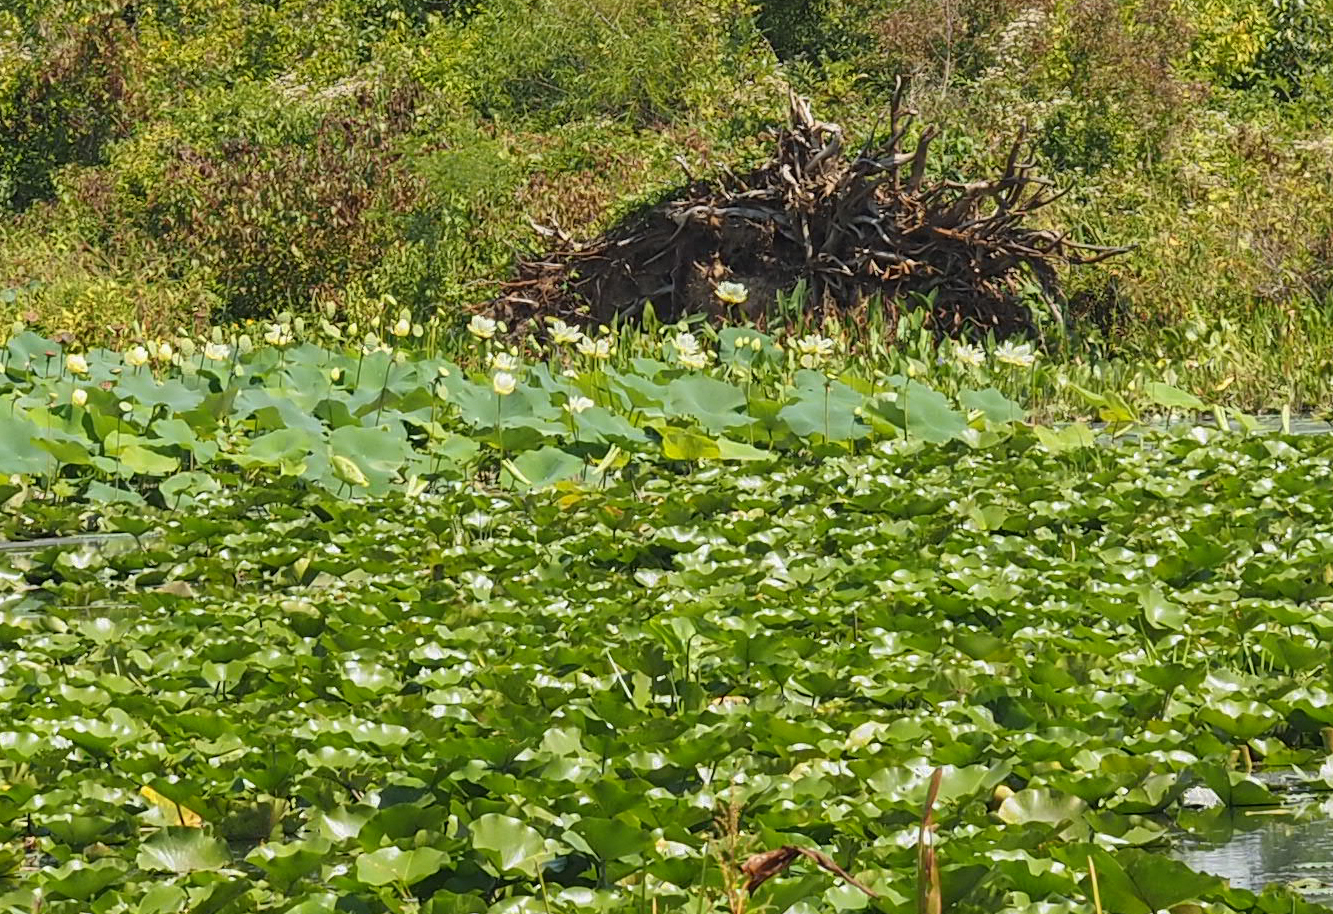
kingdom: Plantae
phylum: Tracheophyta
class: Magnoliopsida
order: Proteales
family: Nelumbonaceae
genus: Nelumbo
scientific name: Nelumbo lutea
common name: American lotus
